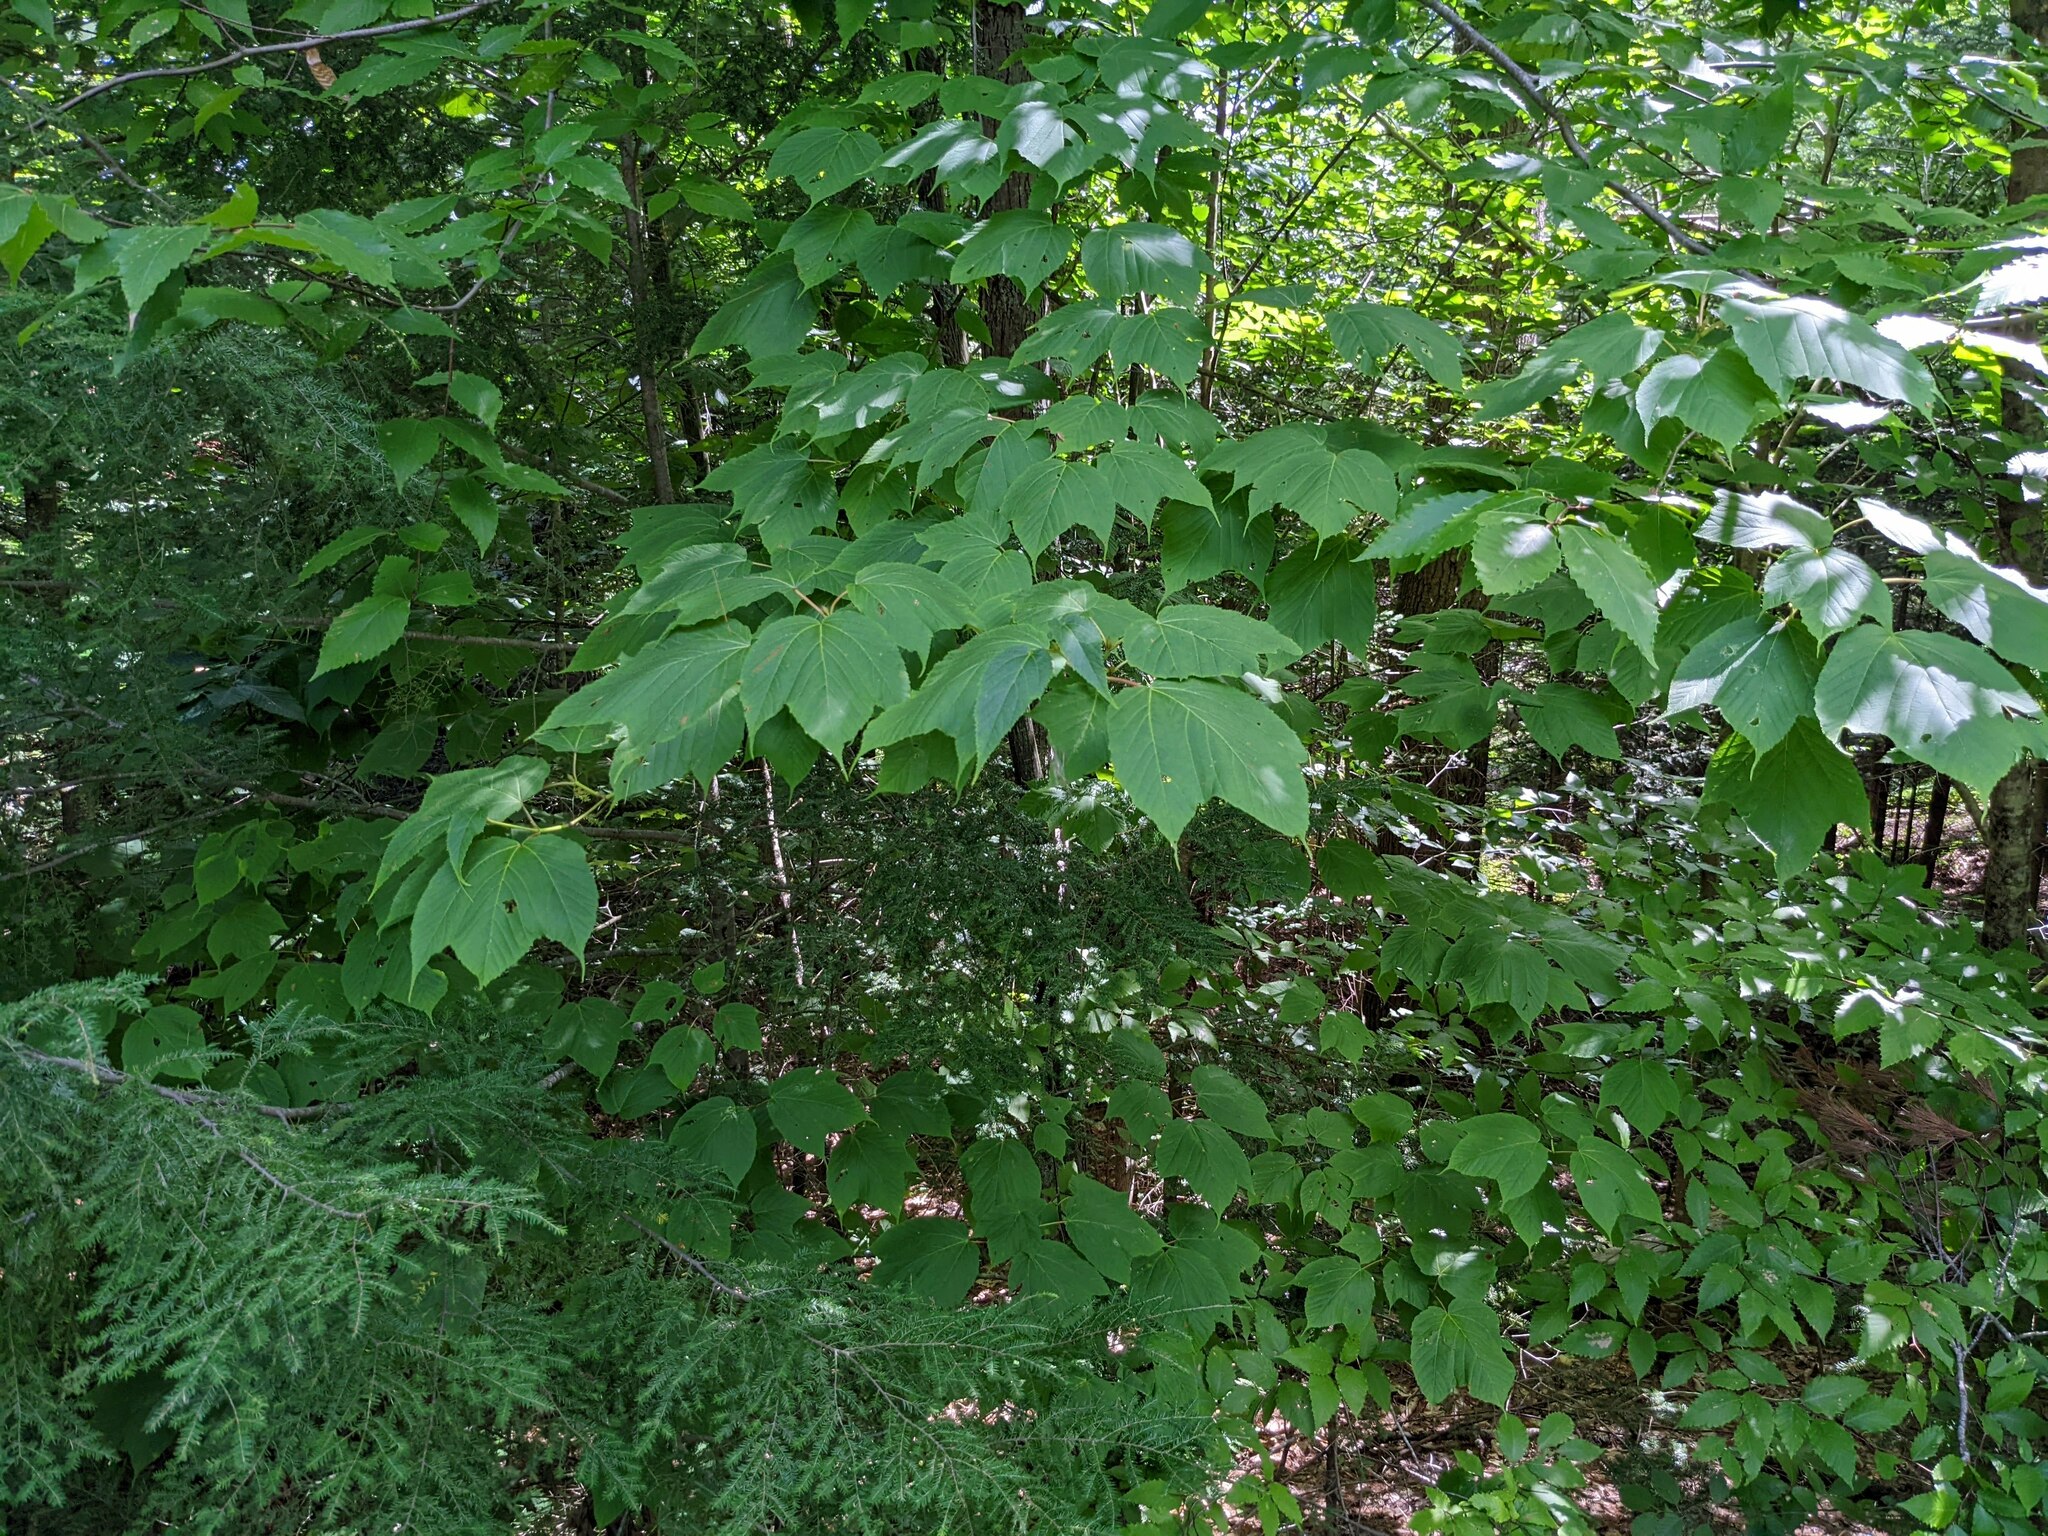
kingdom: Plantae
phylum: Tracheophyta
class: Magnoliopsida
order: Sapindales
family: Sapindaceae
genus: Acer
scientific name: Acer pensylvanicum
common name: Moosewood
